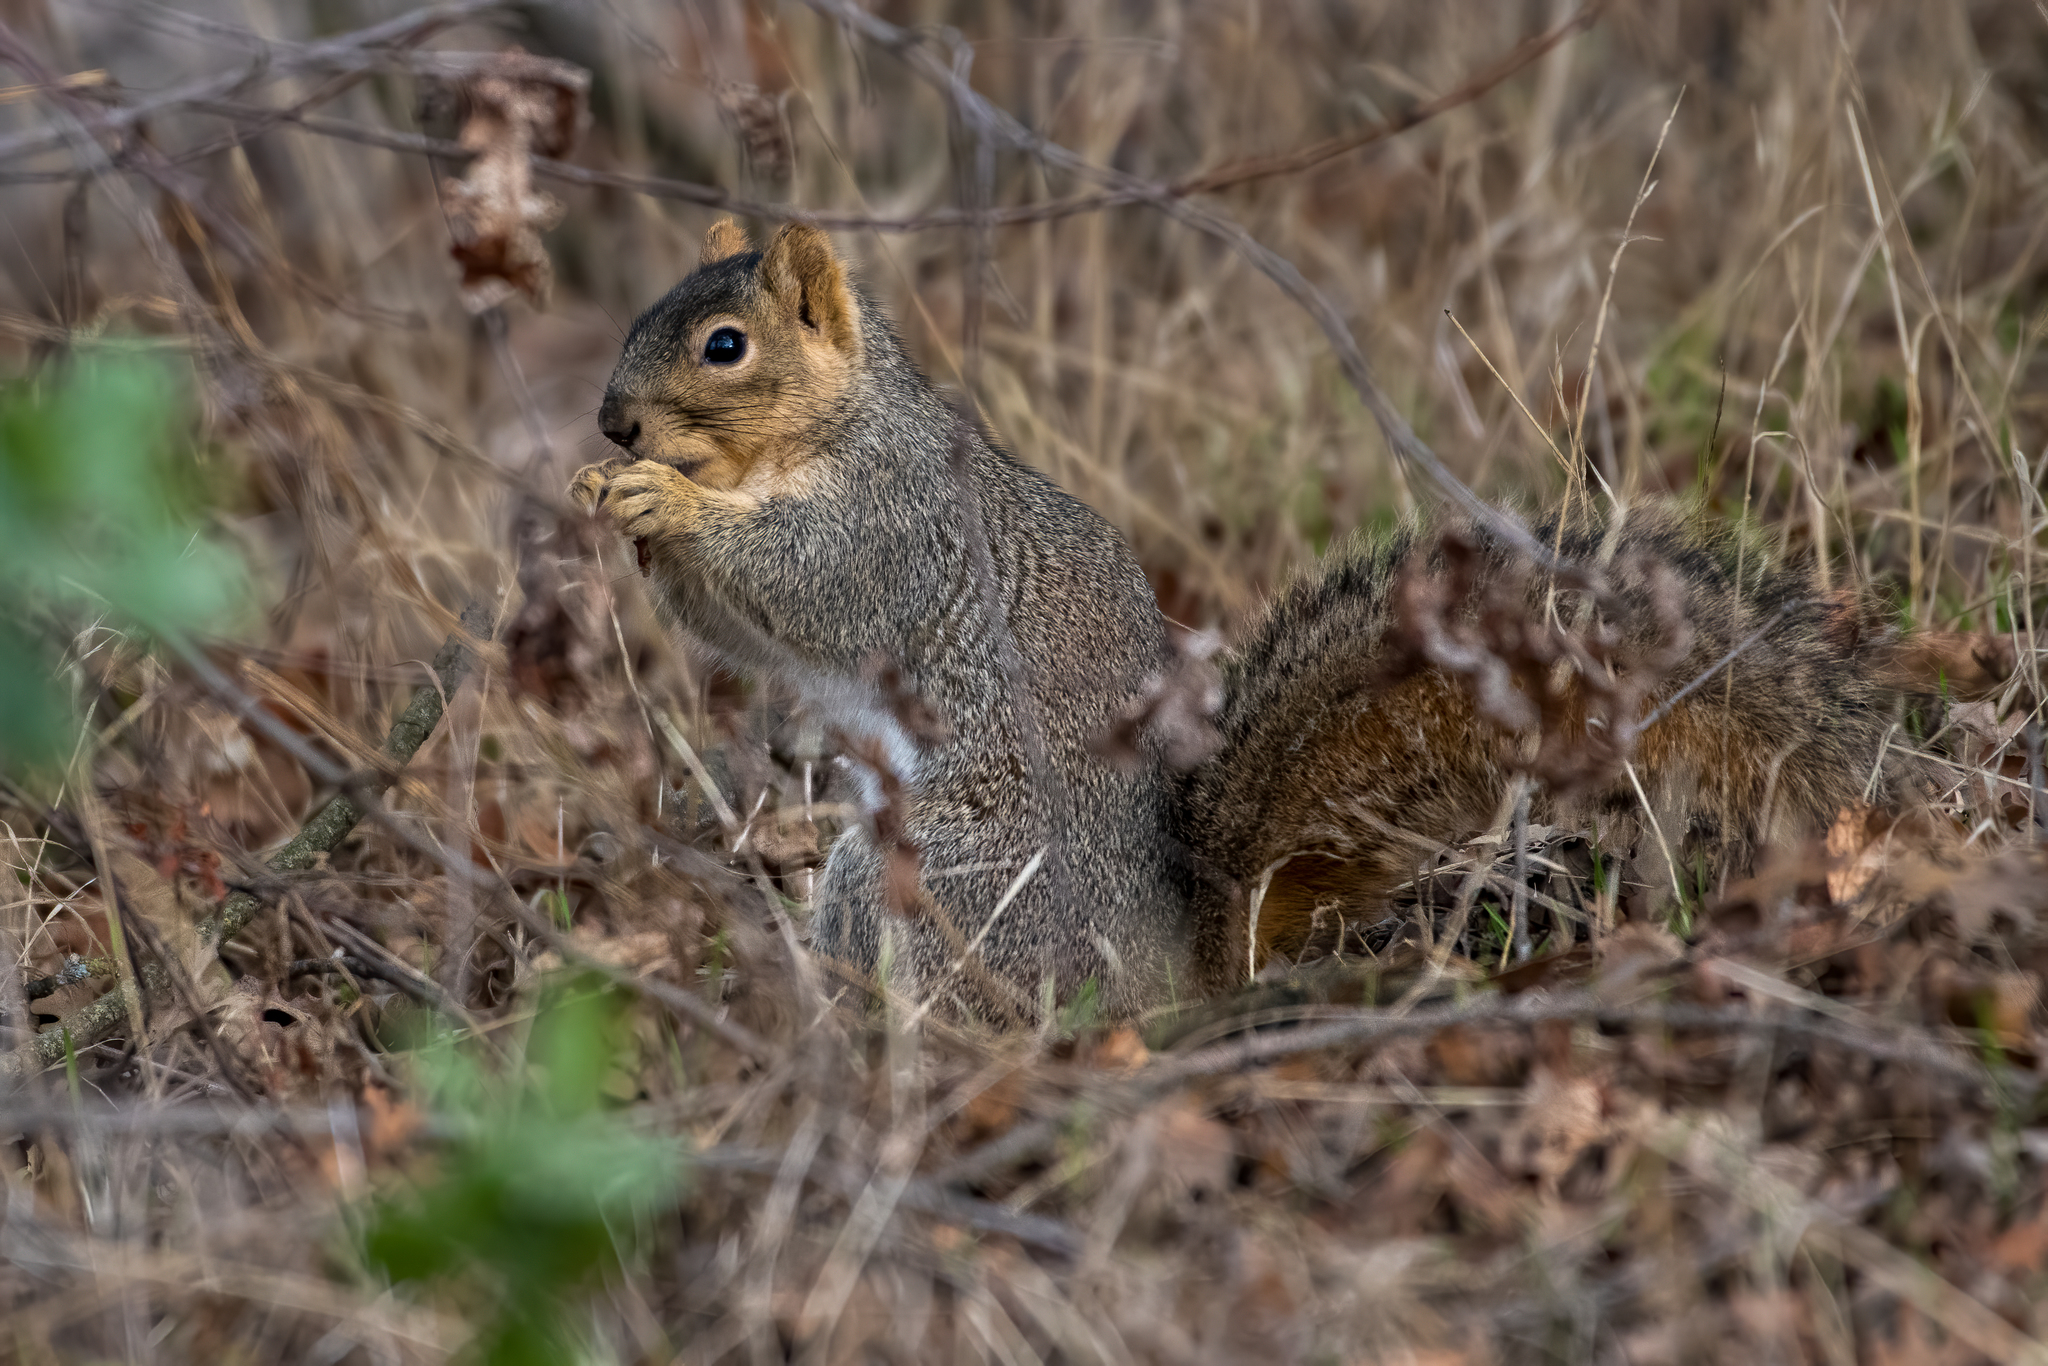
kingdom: Animalia
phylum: Chordata
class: Mammalia
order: Rodentia
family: Sciuridae
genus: Sciurus
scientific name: Sciurus niger
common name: Fox squirrel
